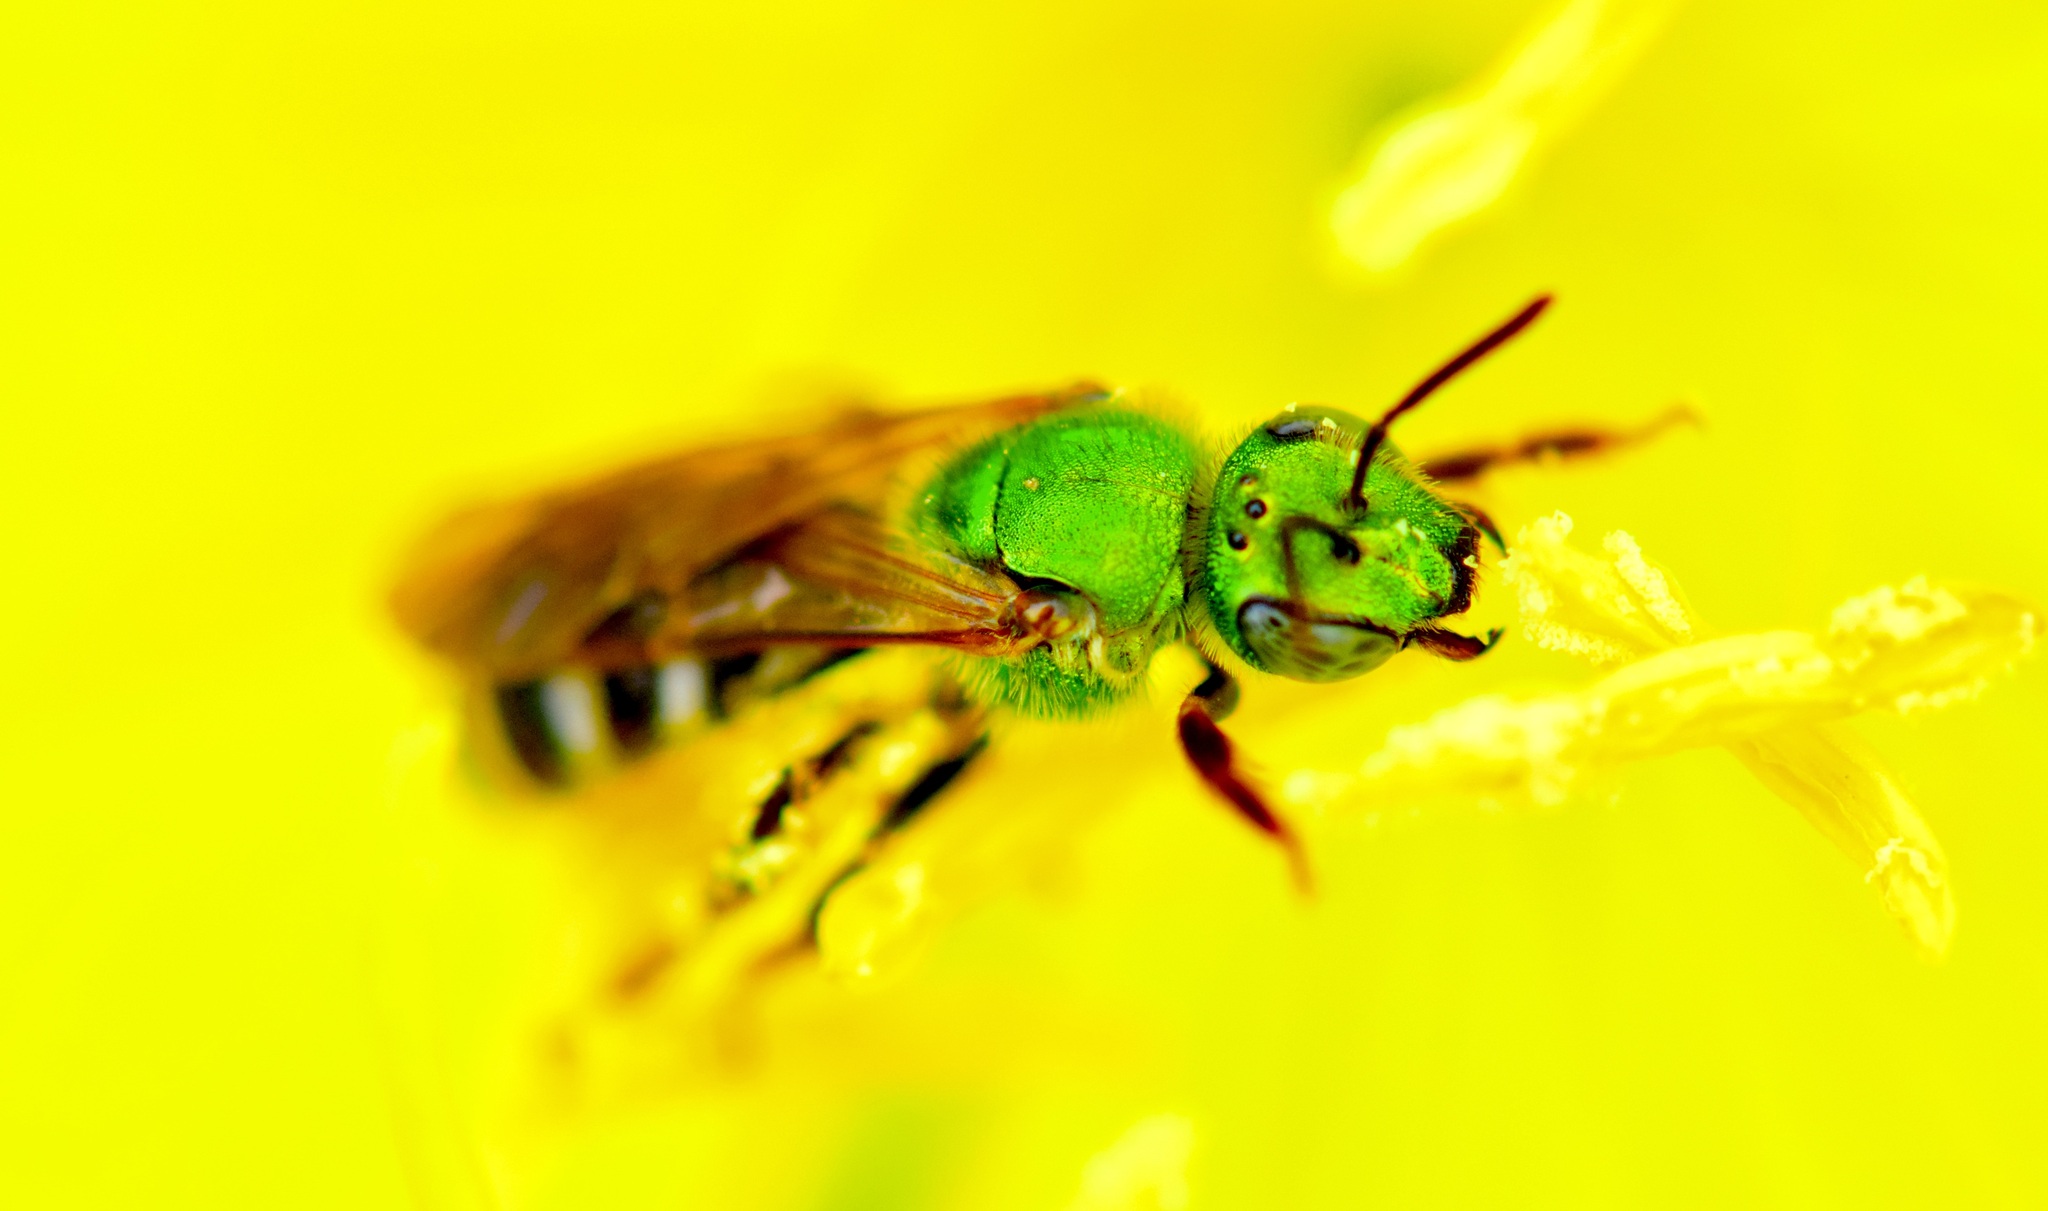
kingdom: Animalia
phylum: Arthropoda
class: Insecta
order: Hymenoptera
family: Halictidae
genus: Agapostemon
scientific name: Agapostemon virescens
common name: Bicolored striped sweat bee
